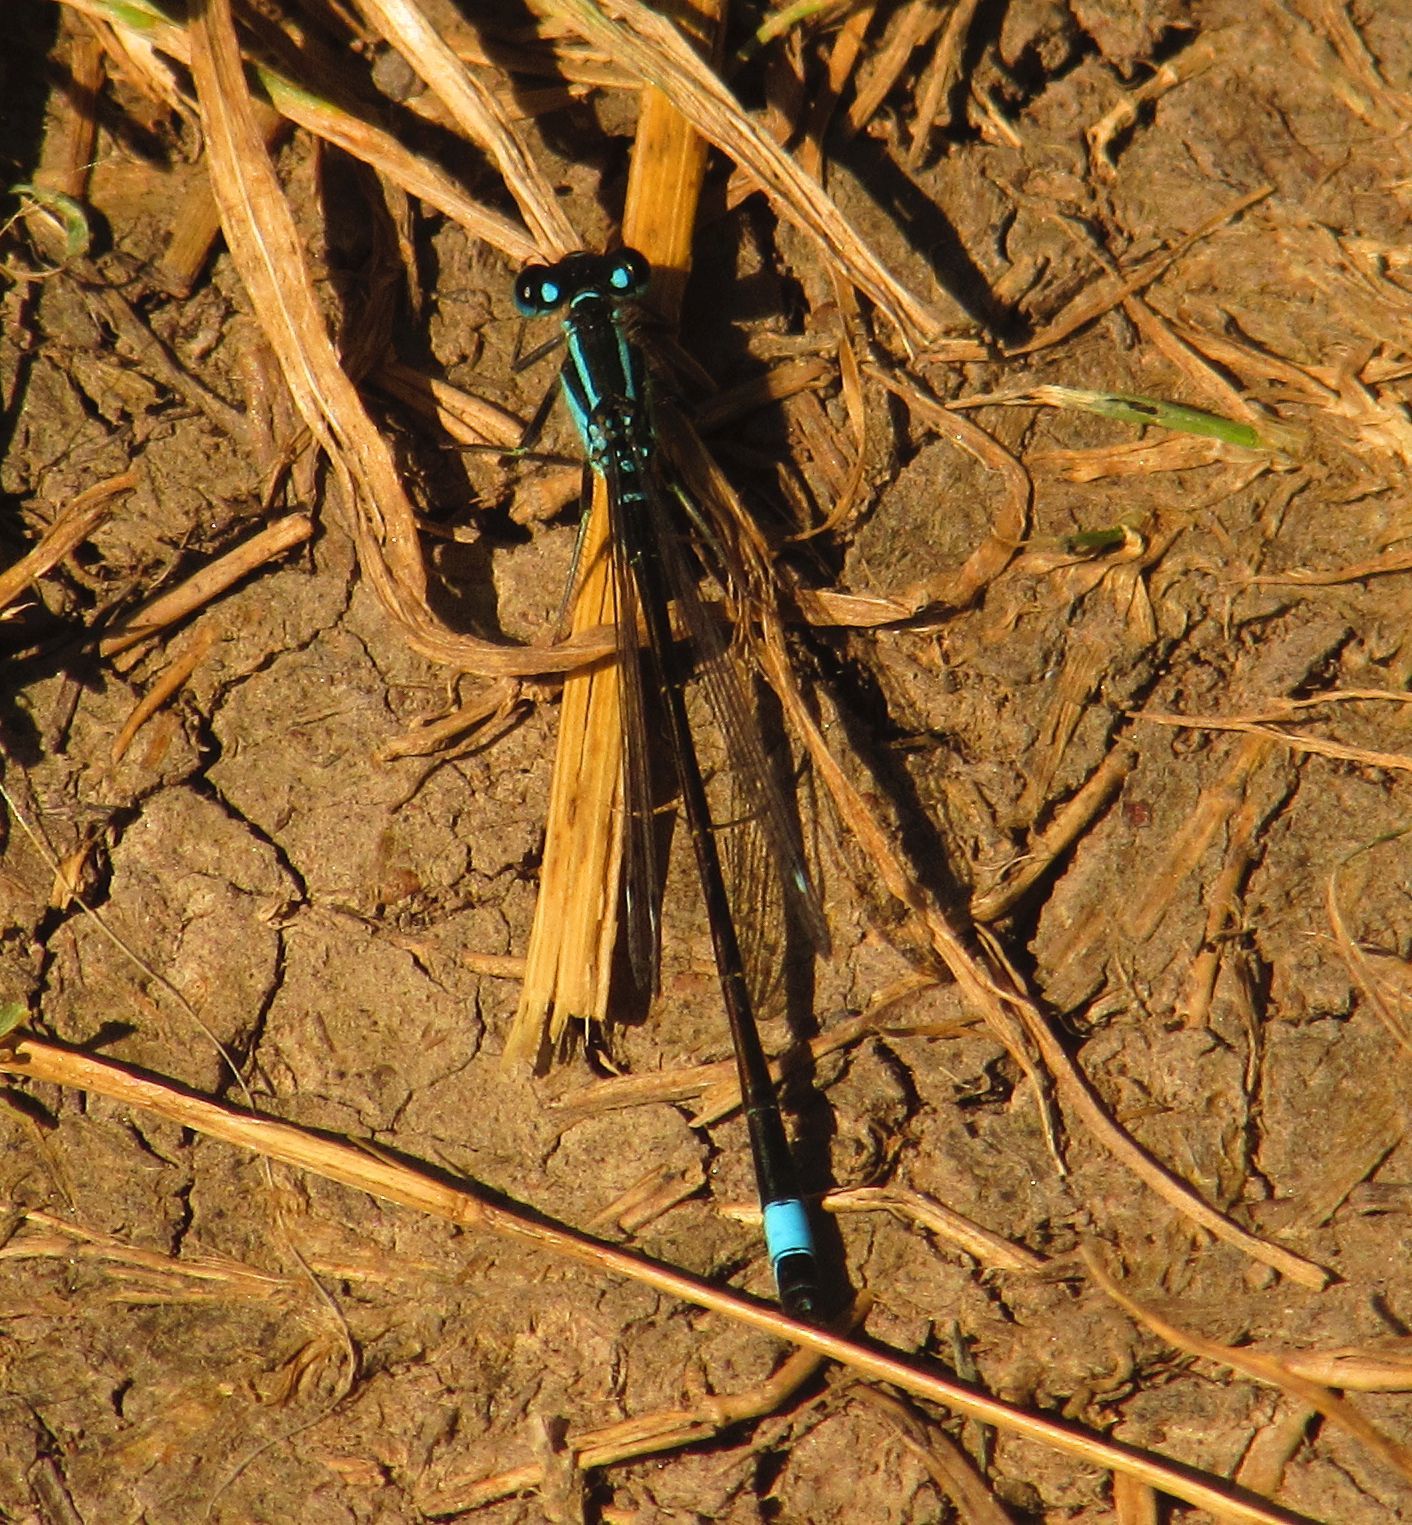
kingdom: Animalia
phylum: Arthropoda
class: Insecta
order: Odonata
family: Coenagrionidae
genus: Ischnura
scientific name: Ischnura elegans
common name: Blue-tailed damselfly
